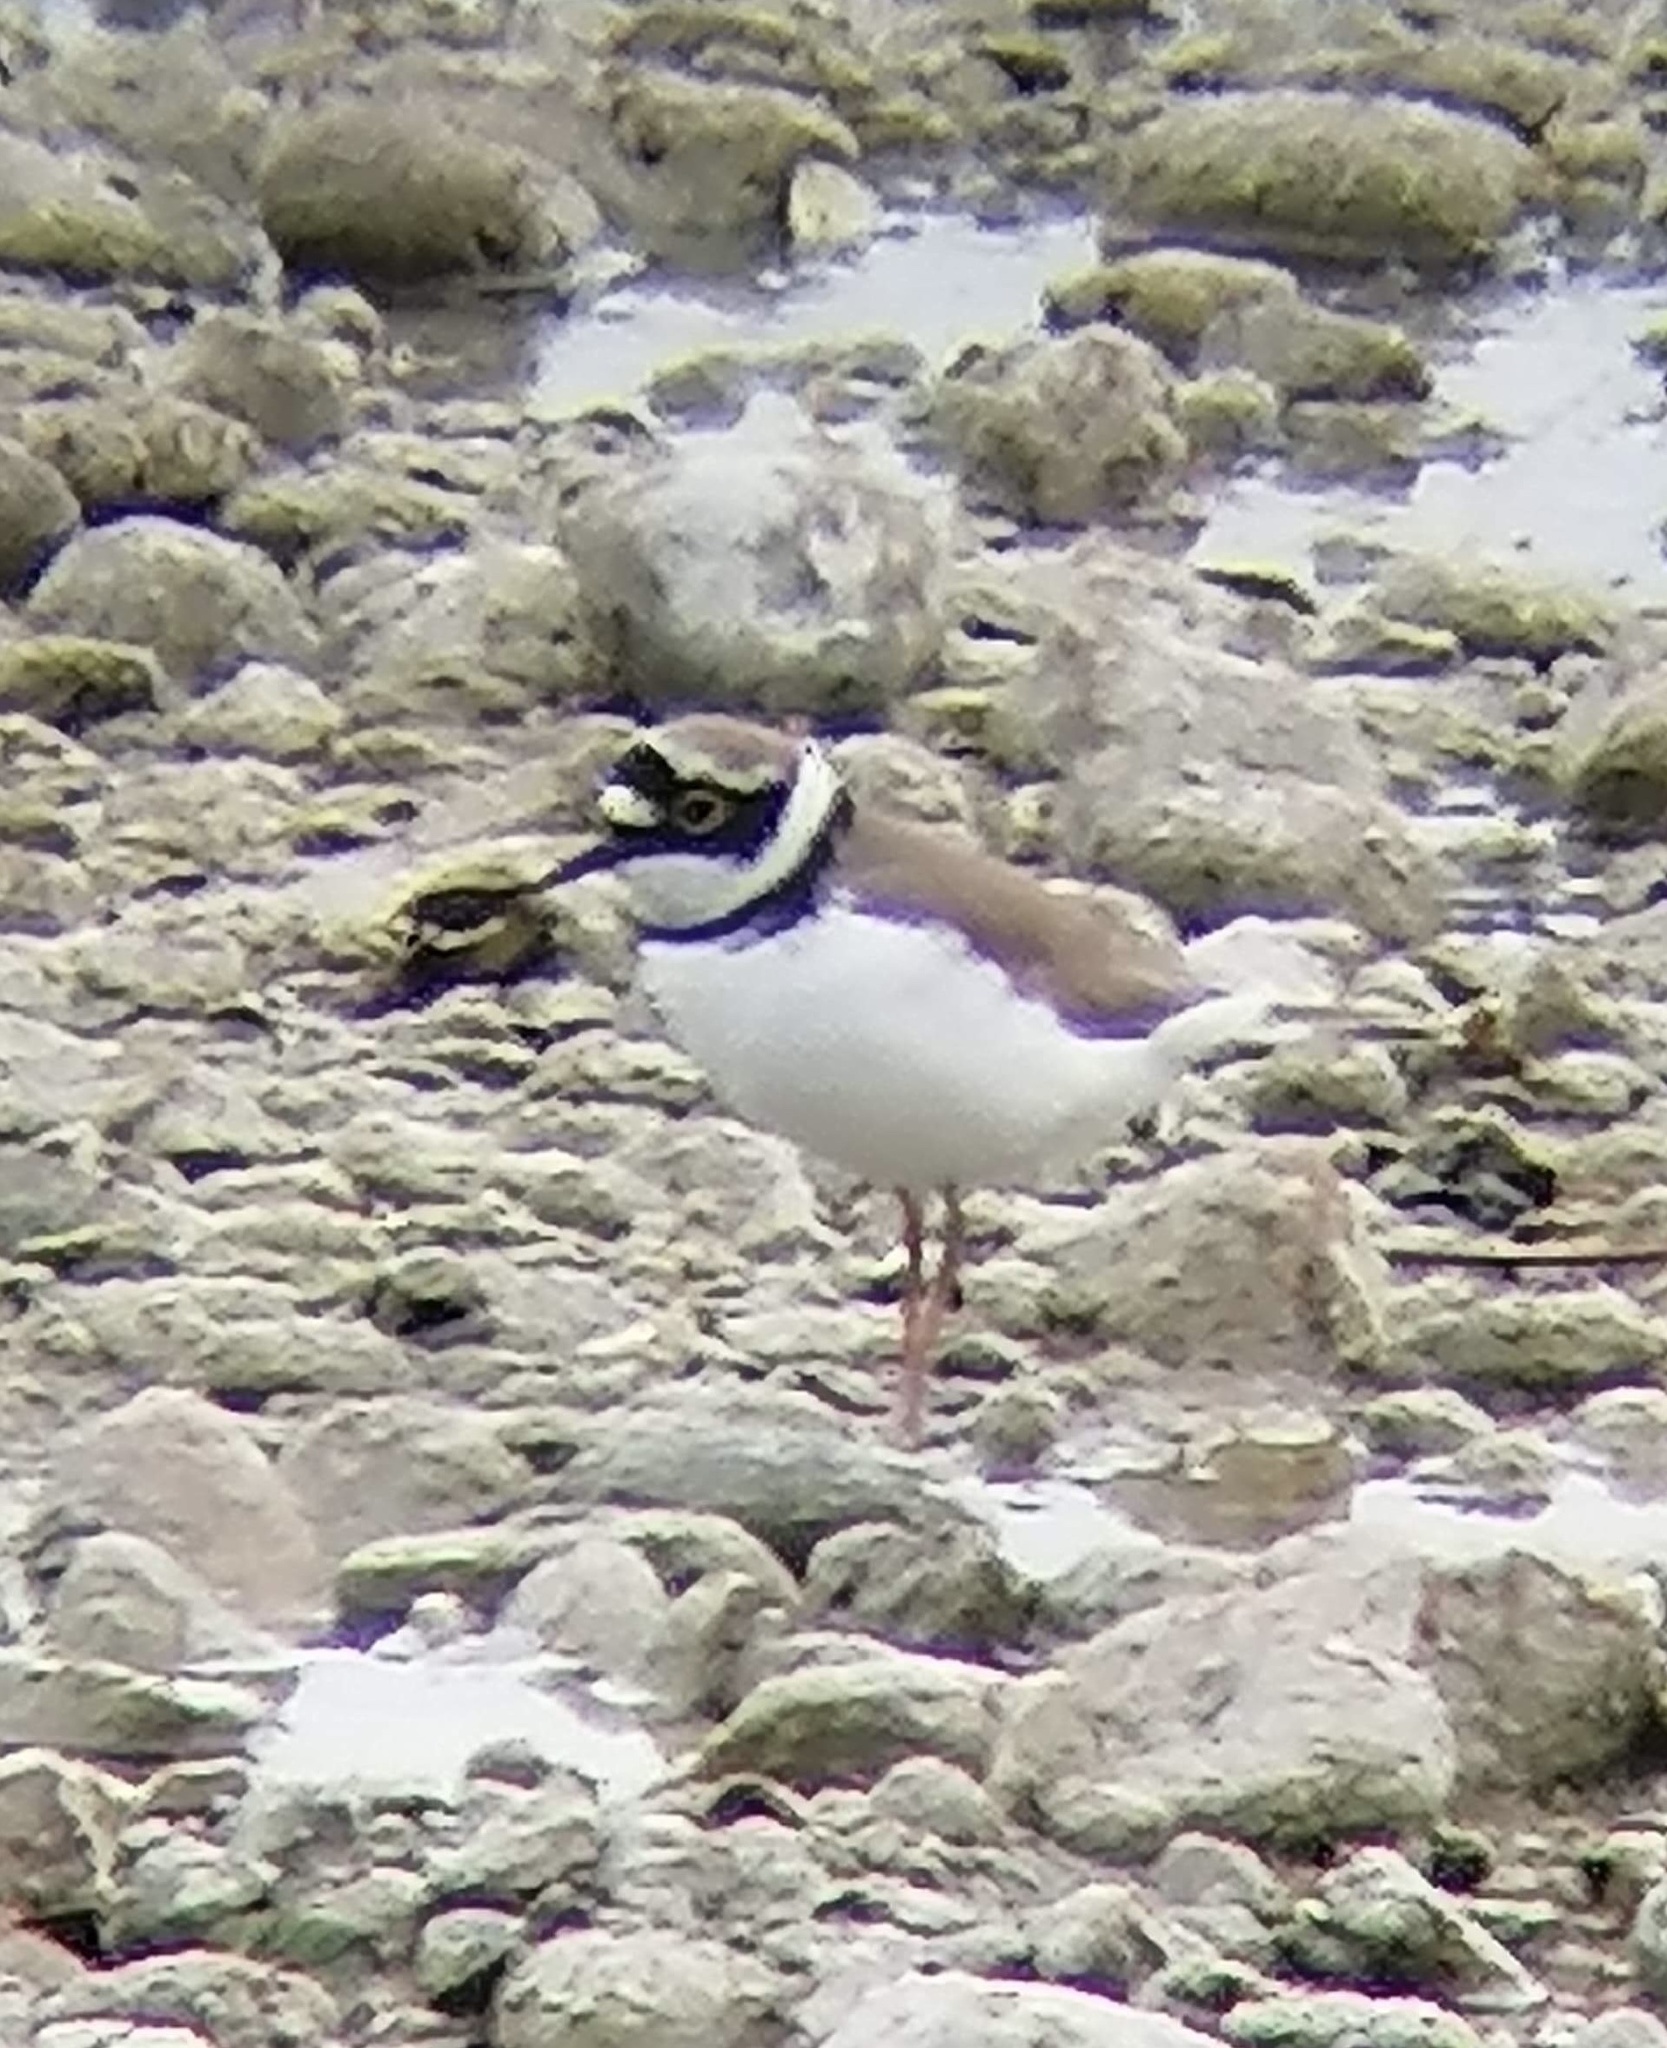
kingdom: Animalia
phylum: Chordata
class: Aves
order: Charadriiformes
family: Charadriidae
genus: Charadrius
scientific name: Charadrius dubius
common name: Little ringed plover
